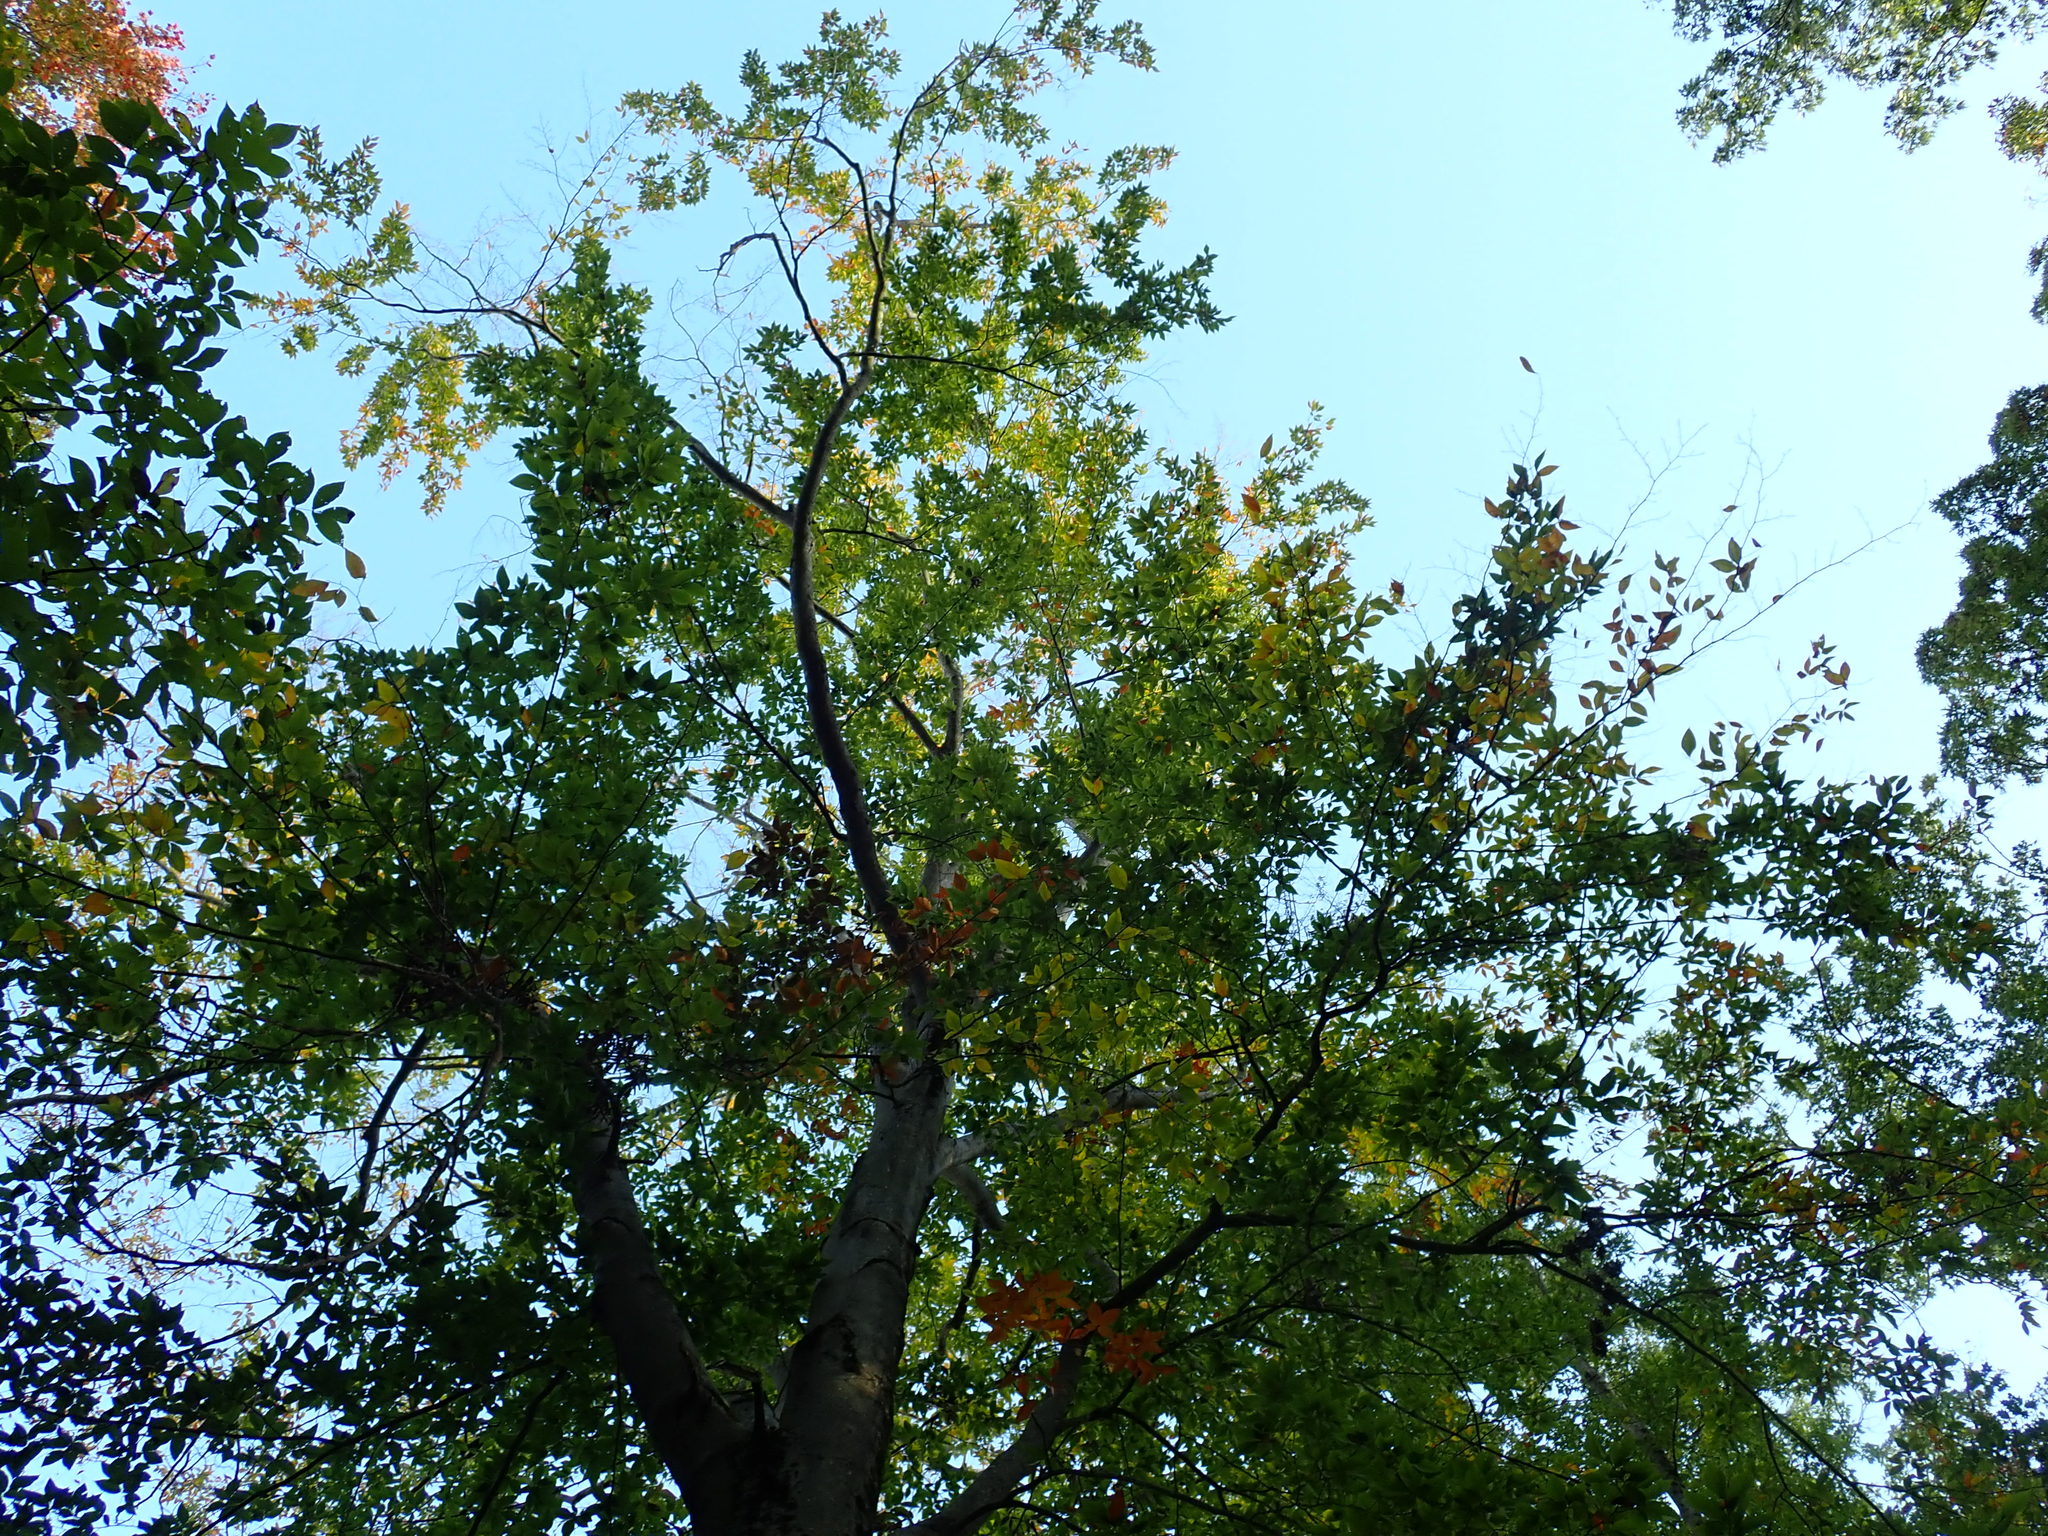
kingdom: Plantae
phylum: Tracheophyta
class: Magnoliopsida
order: Fagales
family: Fagaceae
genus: Fagus
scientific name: Fagus grandifolia
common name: American beech
